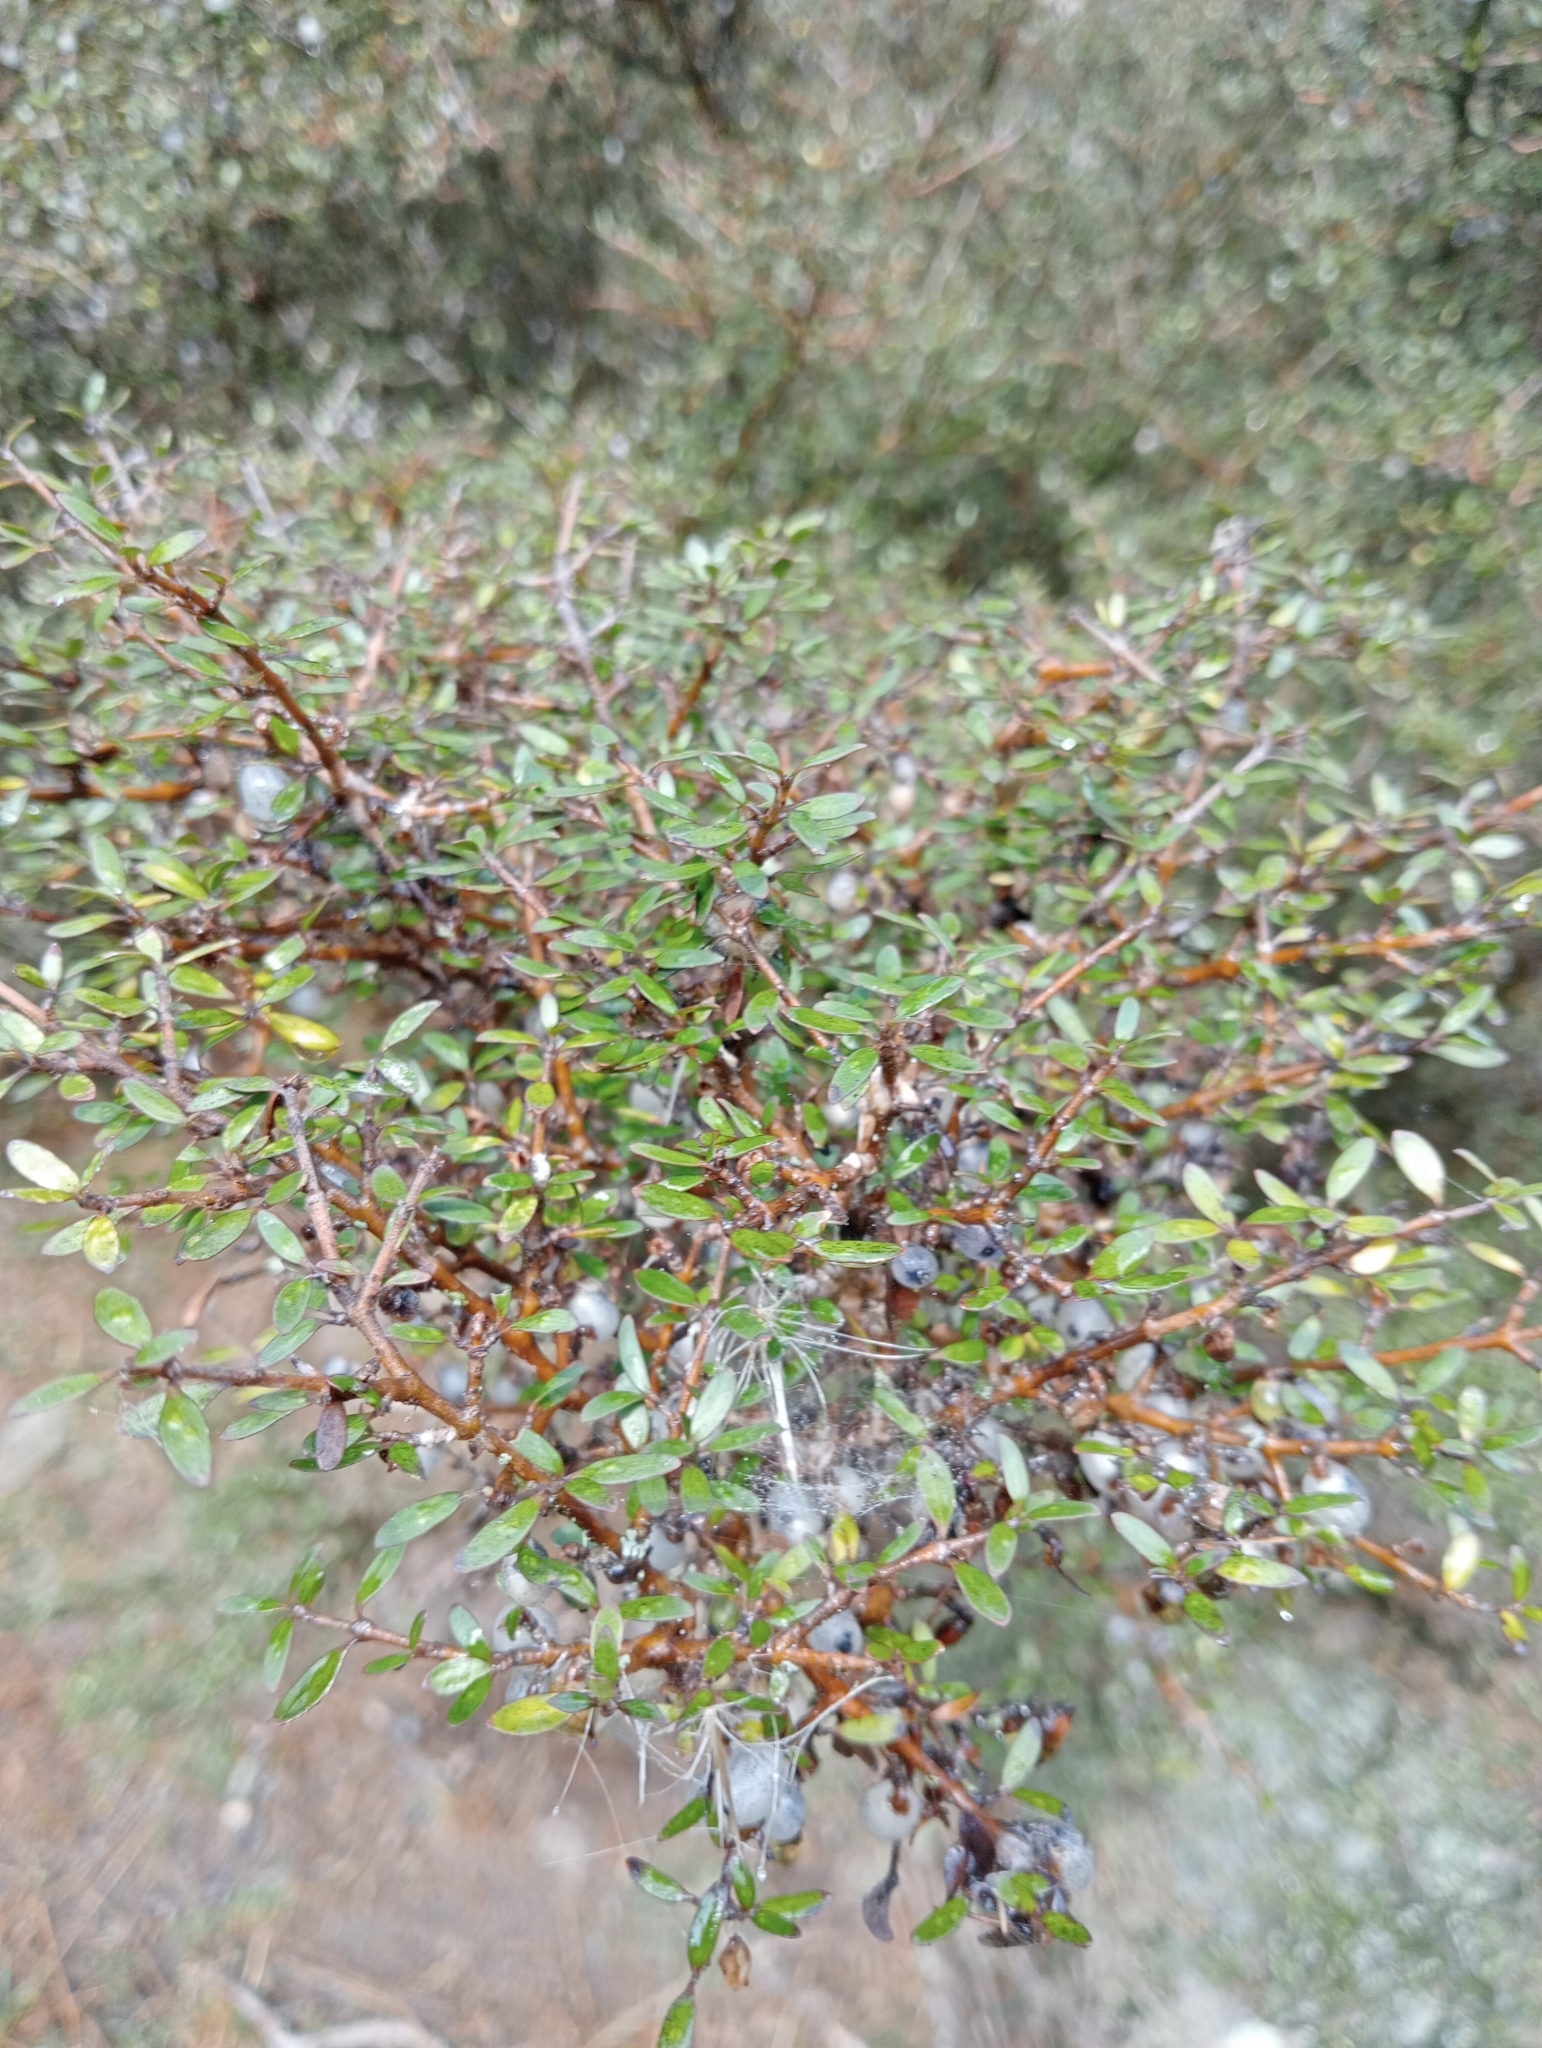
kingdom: Plantae
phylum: Tracheophyta
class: Magnoliopsida
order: Gentianales
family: Rubiaceae
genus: Coprosma
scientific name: Coprosma propinqua
